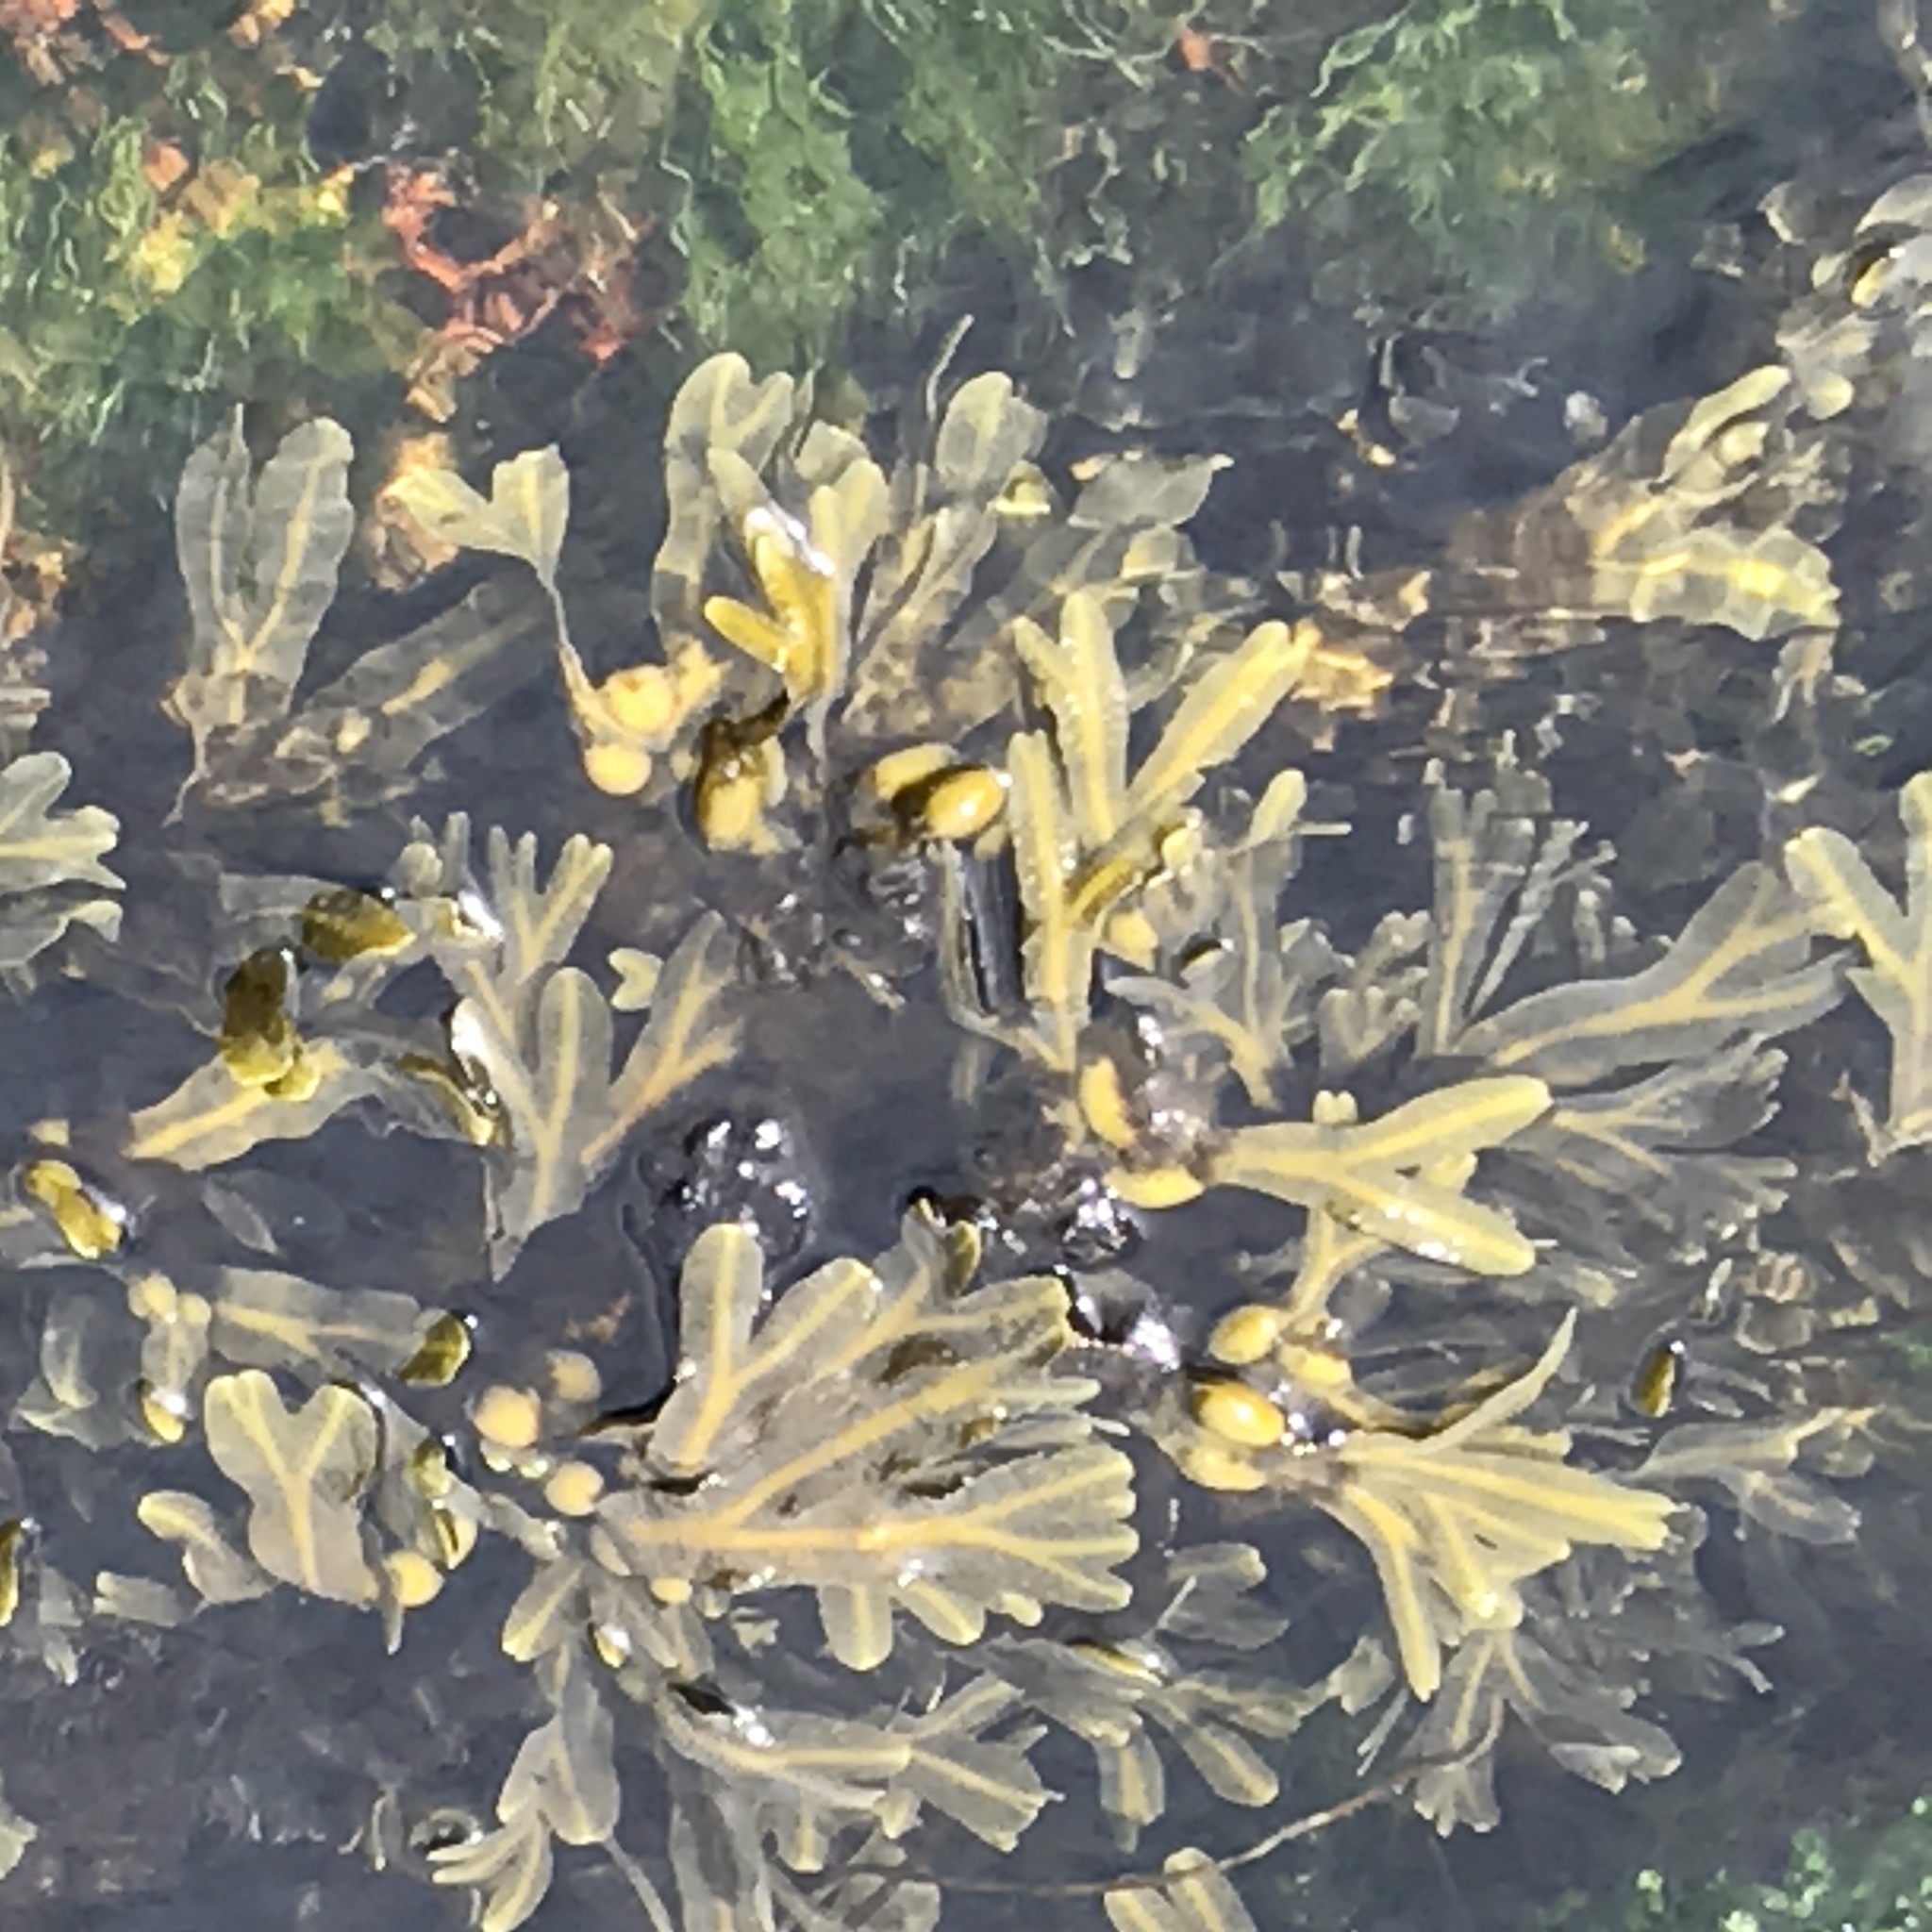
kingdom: Chromista
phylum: Ochrophyta
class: Phaeophyceae
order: Fucales
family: Fucaceae
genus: Fucus
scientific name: Fucus vesiculosus
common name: Bladder wrack
